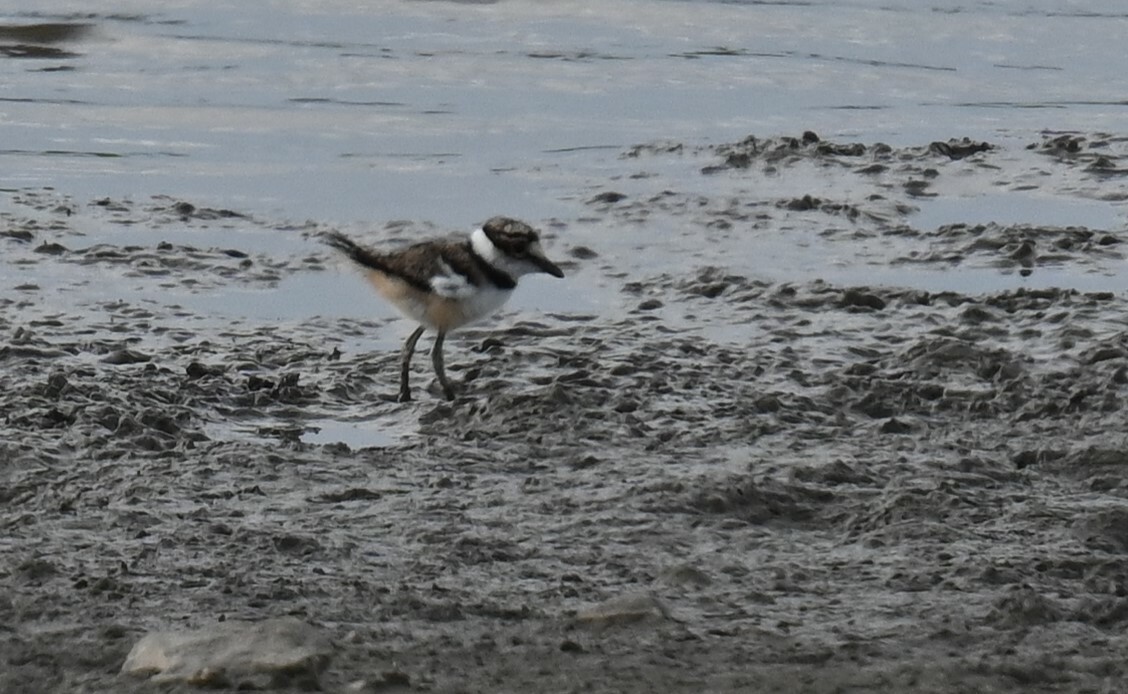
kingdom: Animalia
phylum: Chordata
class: Aves
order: Charadriiformes
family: Charadriidae
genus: Charadrius
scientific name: Charadrius vociferus
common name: Killdeer
